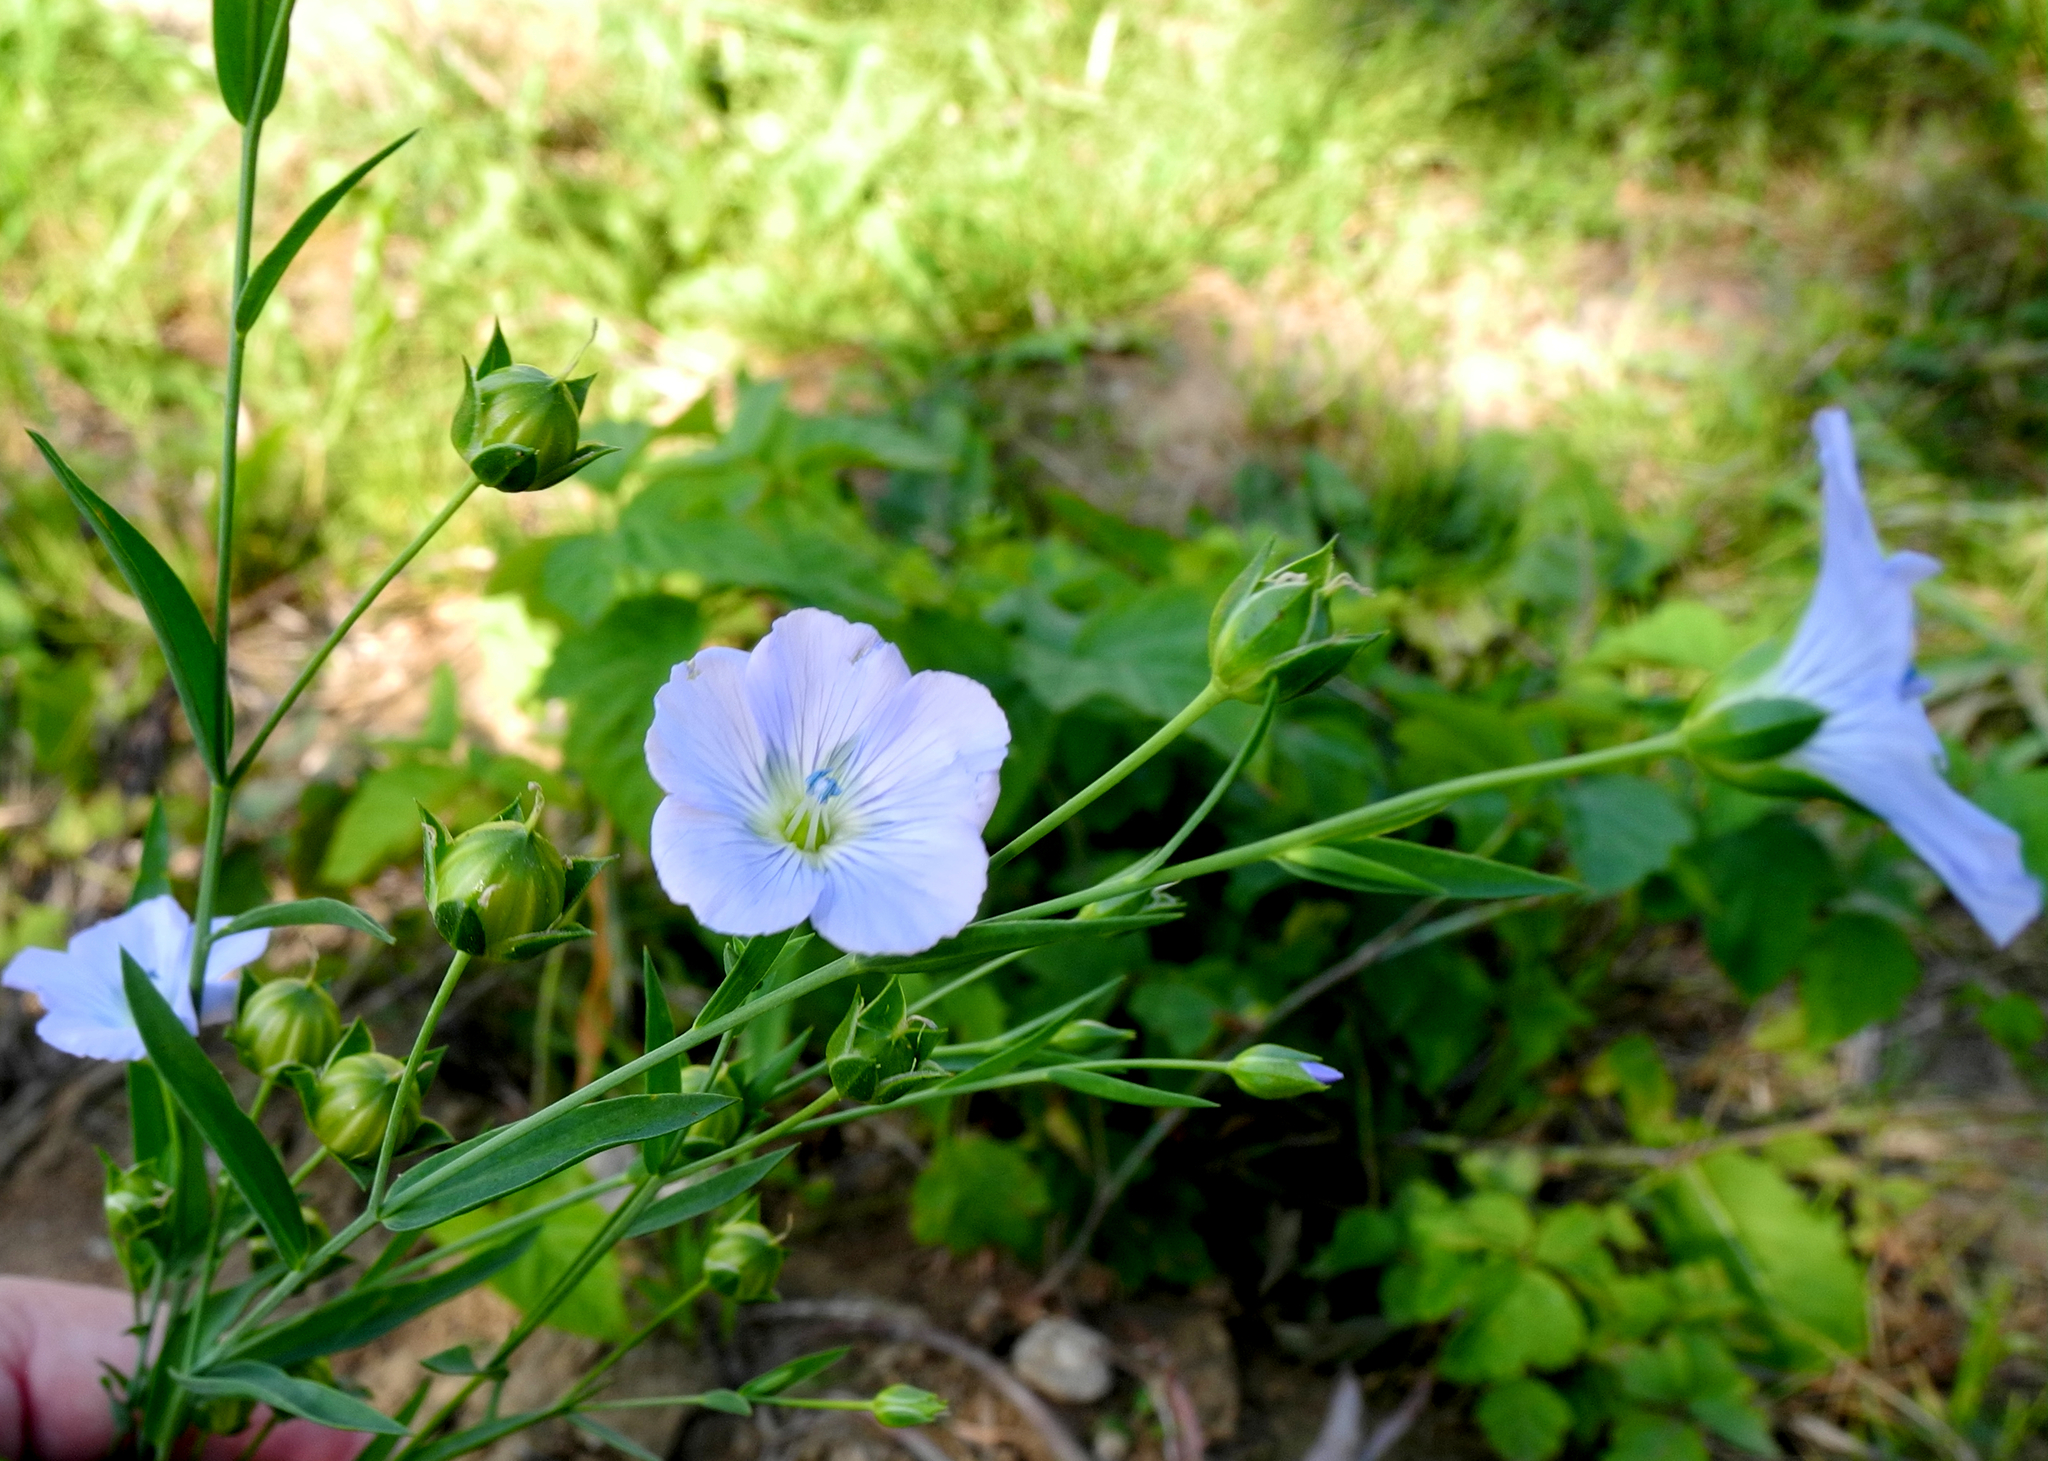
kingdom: Plantae
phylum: Tracheophyta
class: Magnoliopsida
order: Malpighiales
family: Linaceae
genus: Linum
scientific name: Linum usitatissimum
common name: Flax
